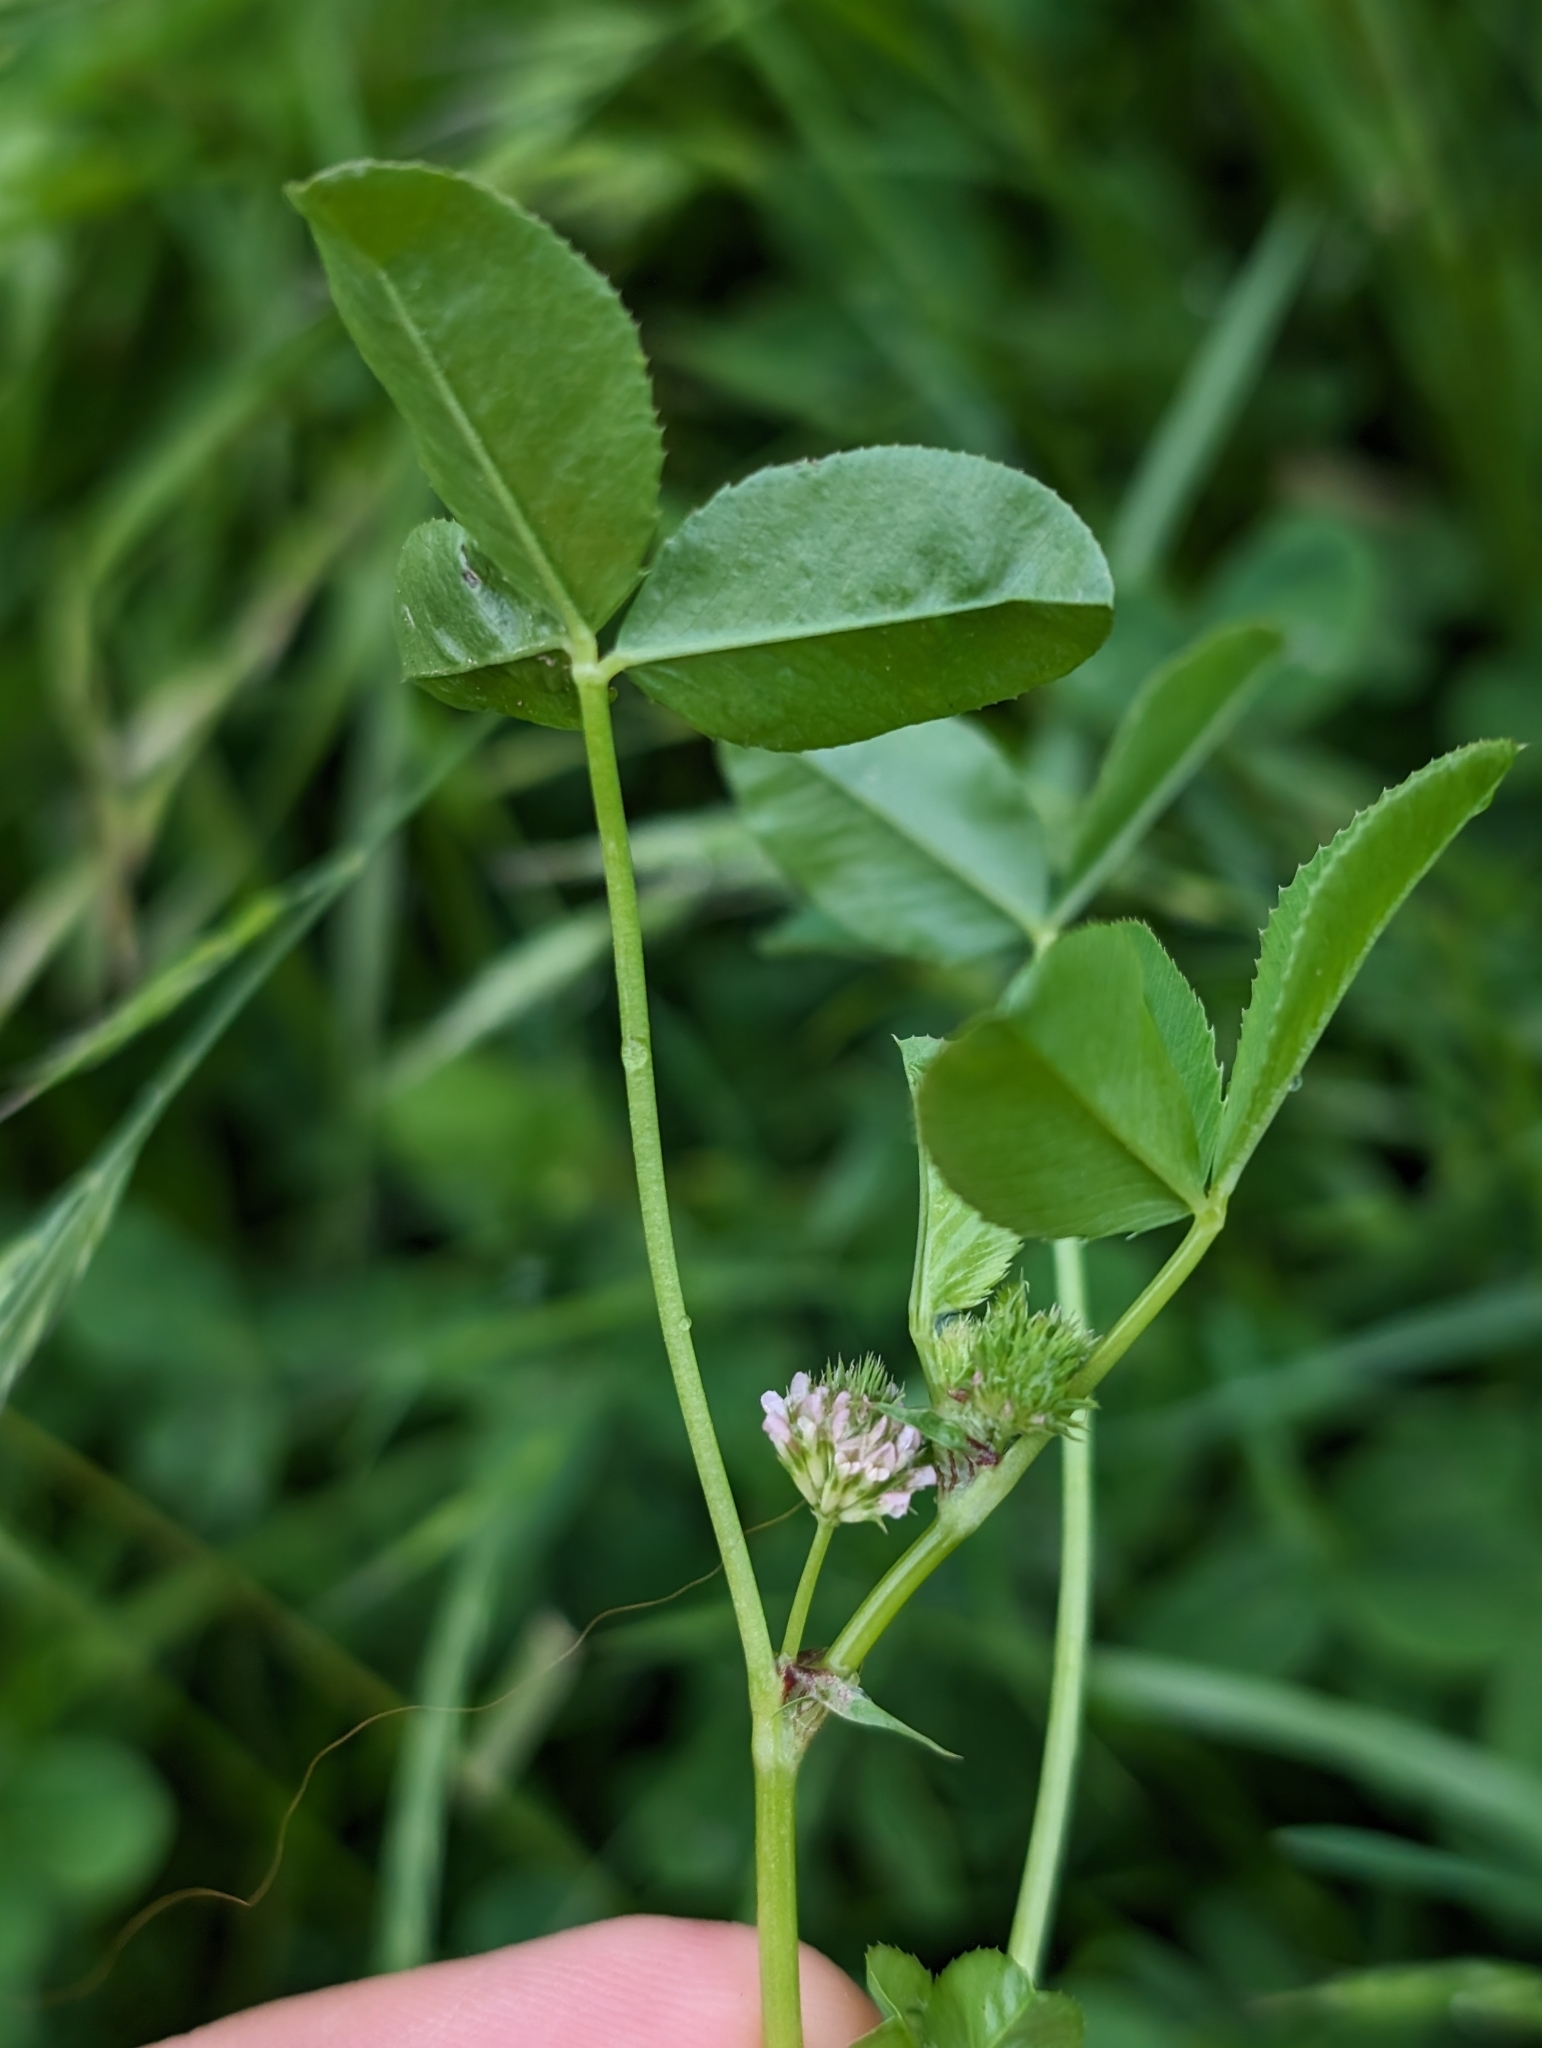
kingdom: Plantae
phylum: Tracheophyta
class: Magnoliopsida
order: Fabales
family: Fabaceae
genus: Trifolium
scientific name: Trifolium gracilentum
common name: Slender clover
